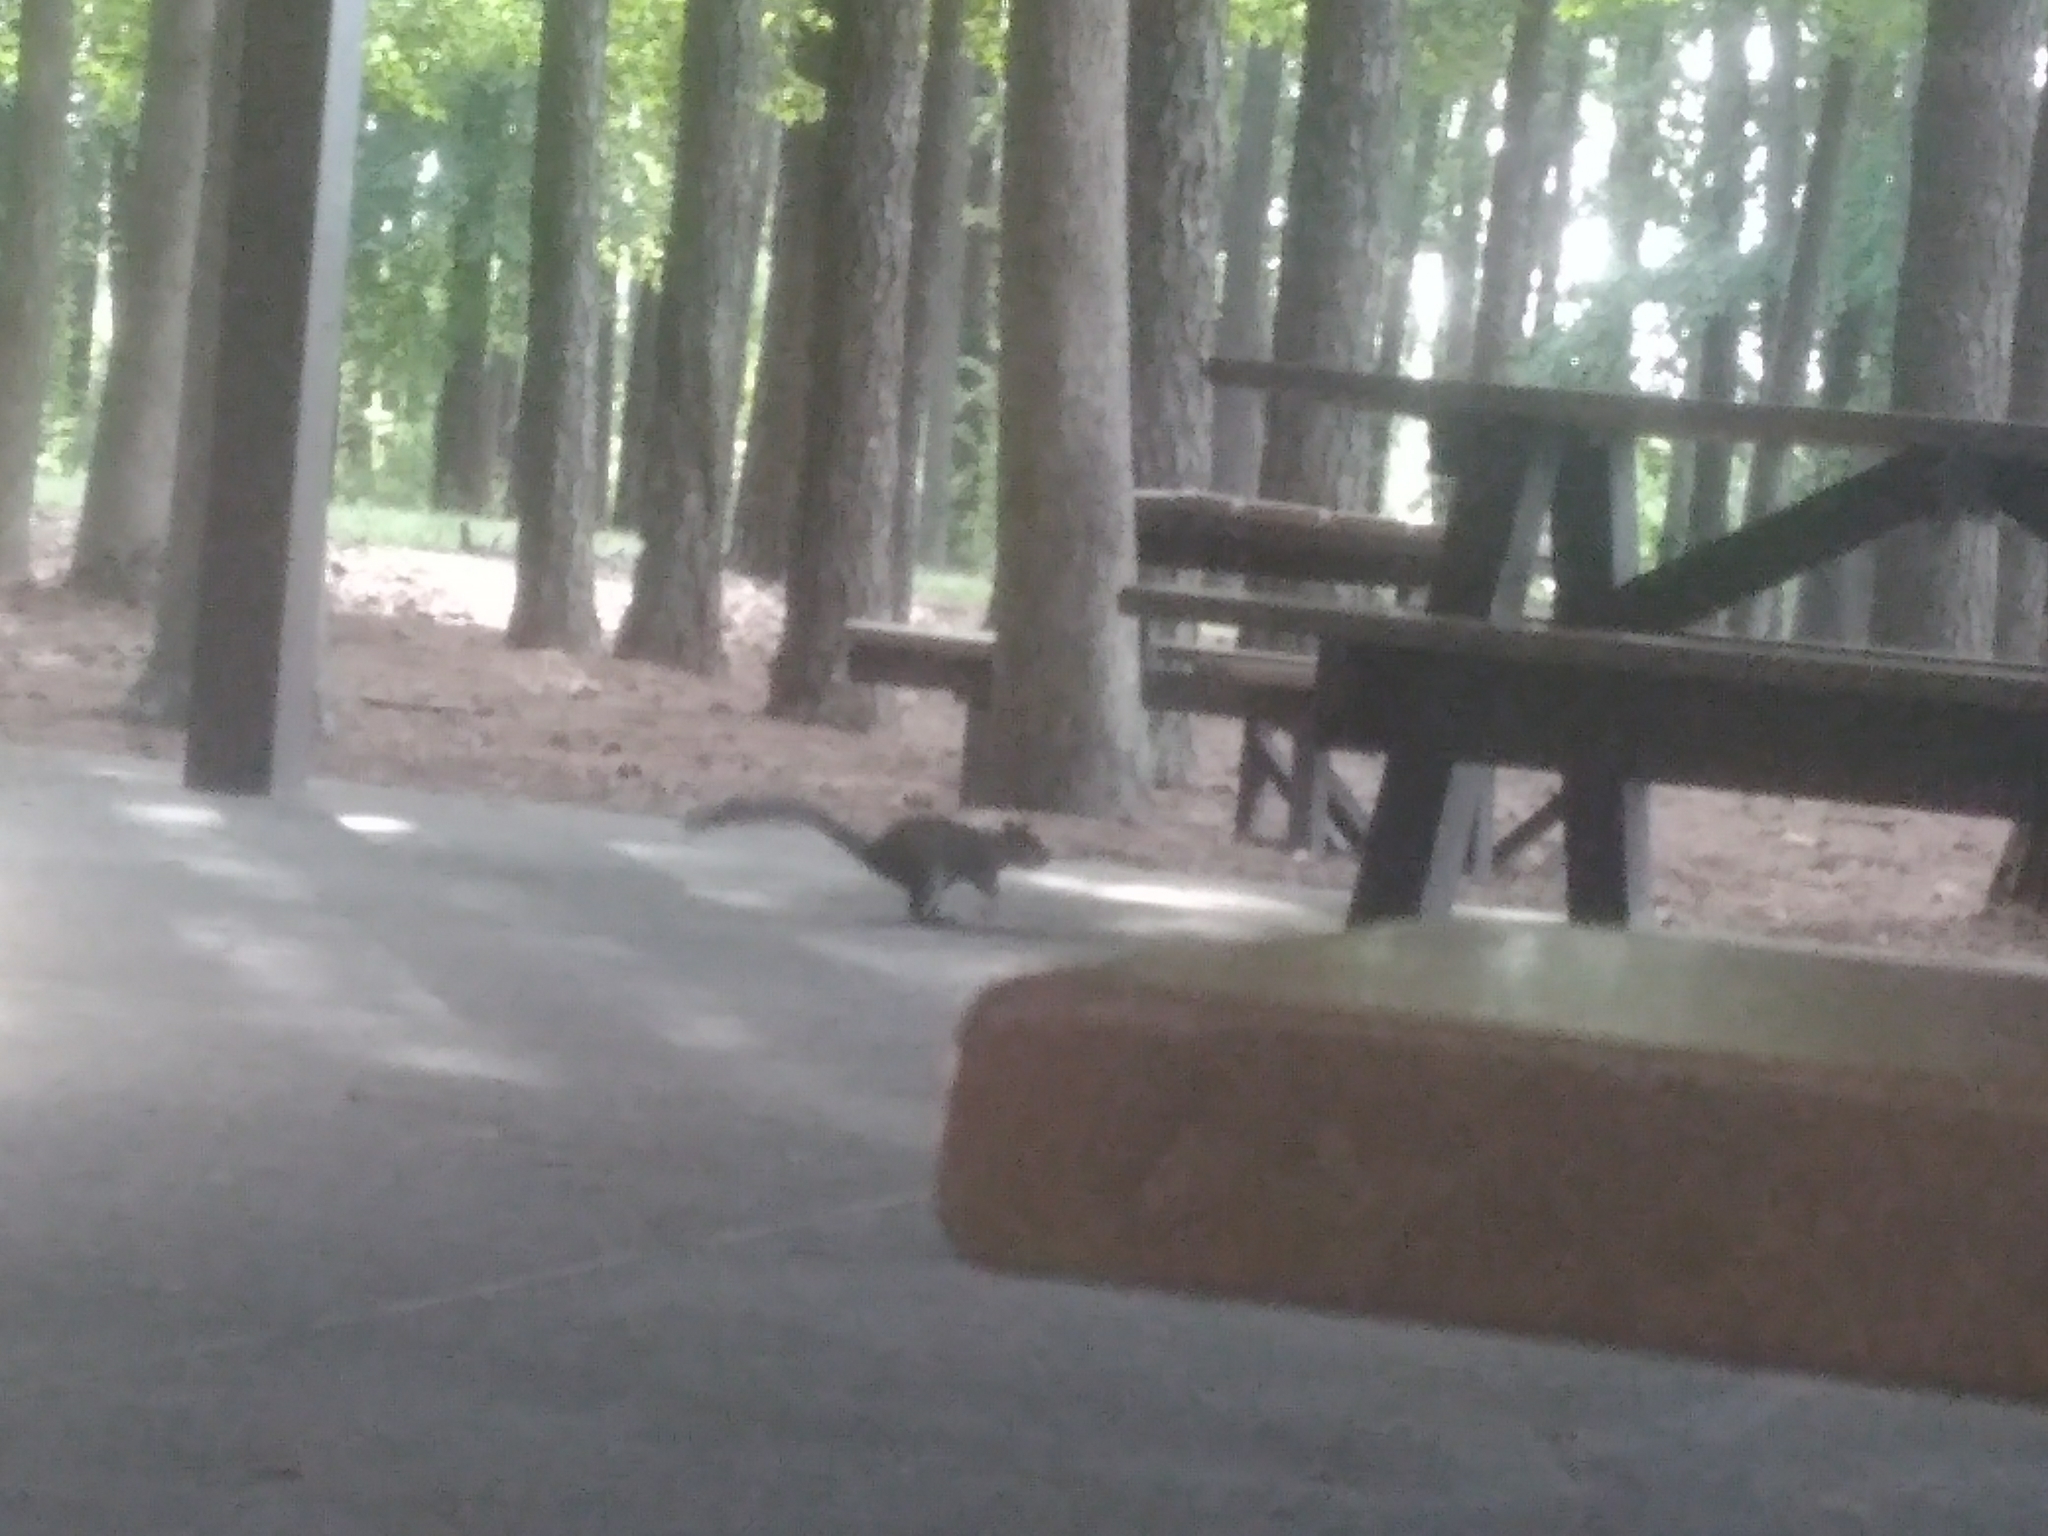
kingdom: Animalia
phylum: Chordata
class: Mammalia
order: Rodentia
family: Sciuridae
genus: Sciurus
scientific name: Sciurus carolinensis
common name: Eastern gray squirrel
